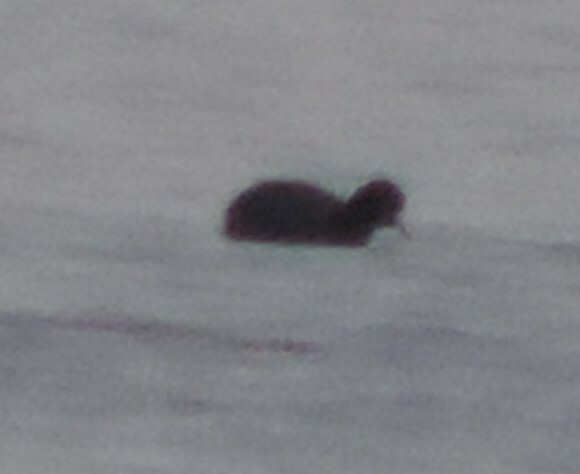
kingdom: Animalia
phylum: Chordata
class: Aves
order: Gruiformes
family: Rallidae
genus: Fulica
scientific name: Fulica americana
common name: American coot
